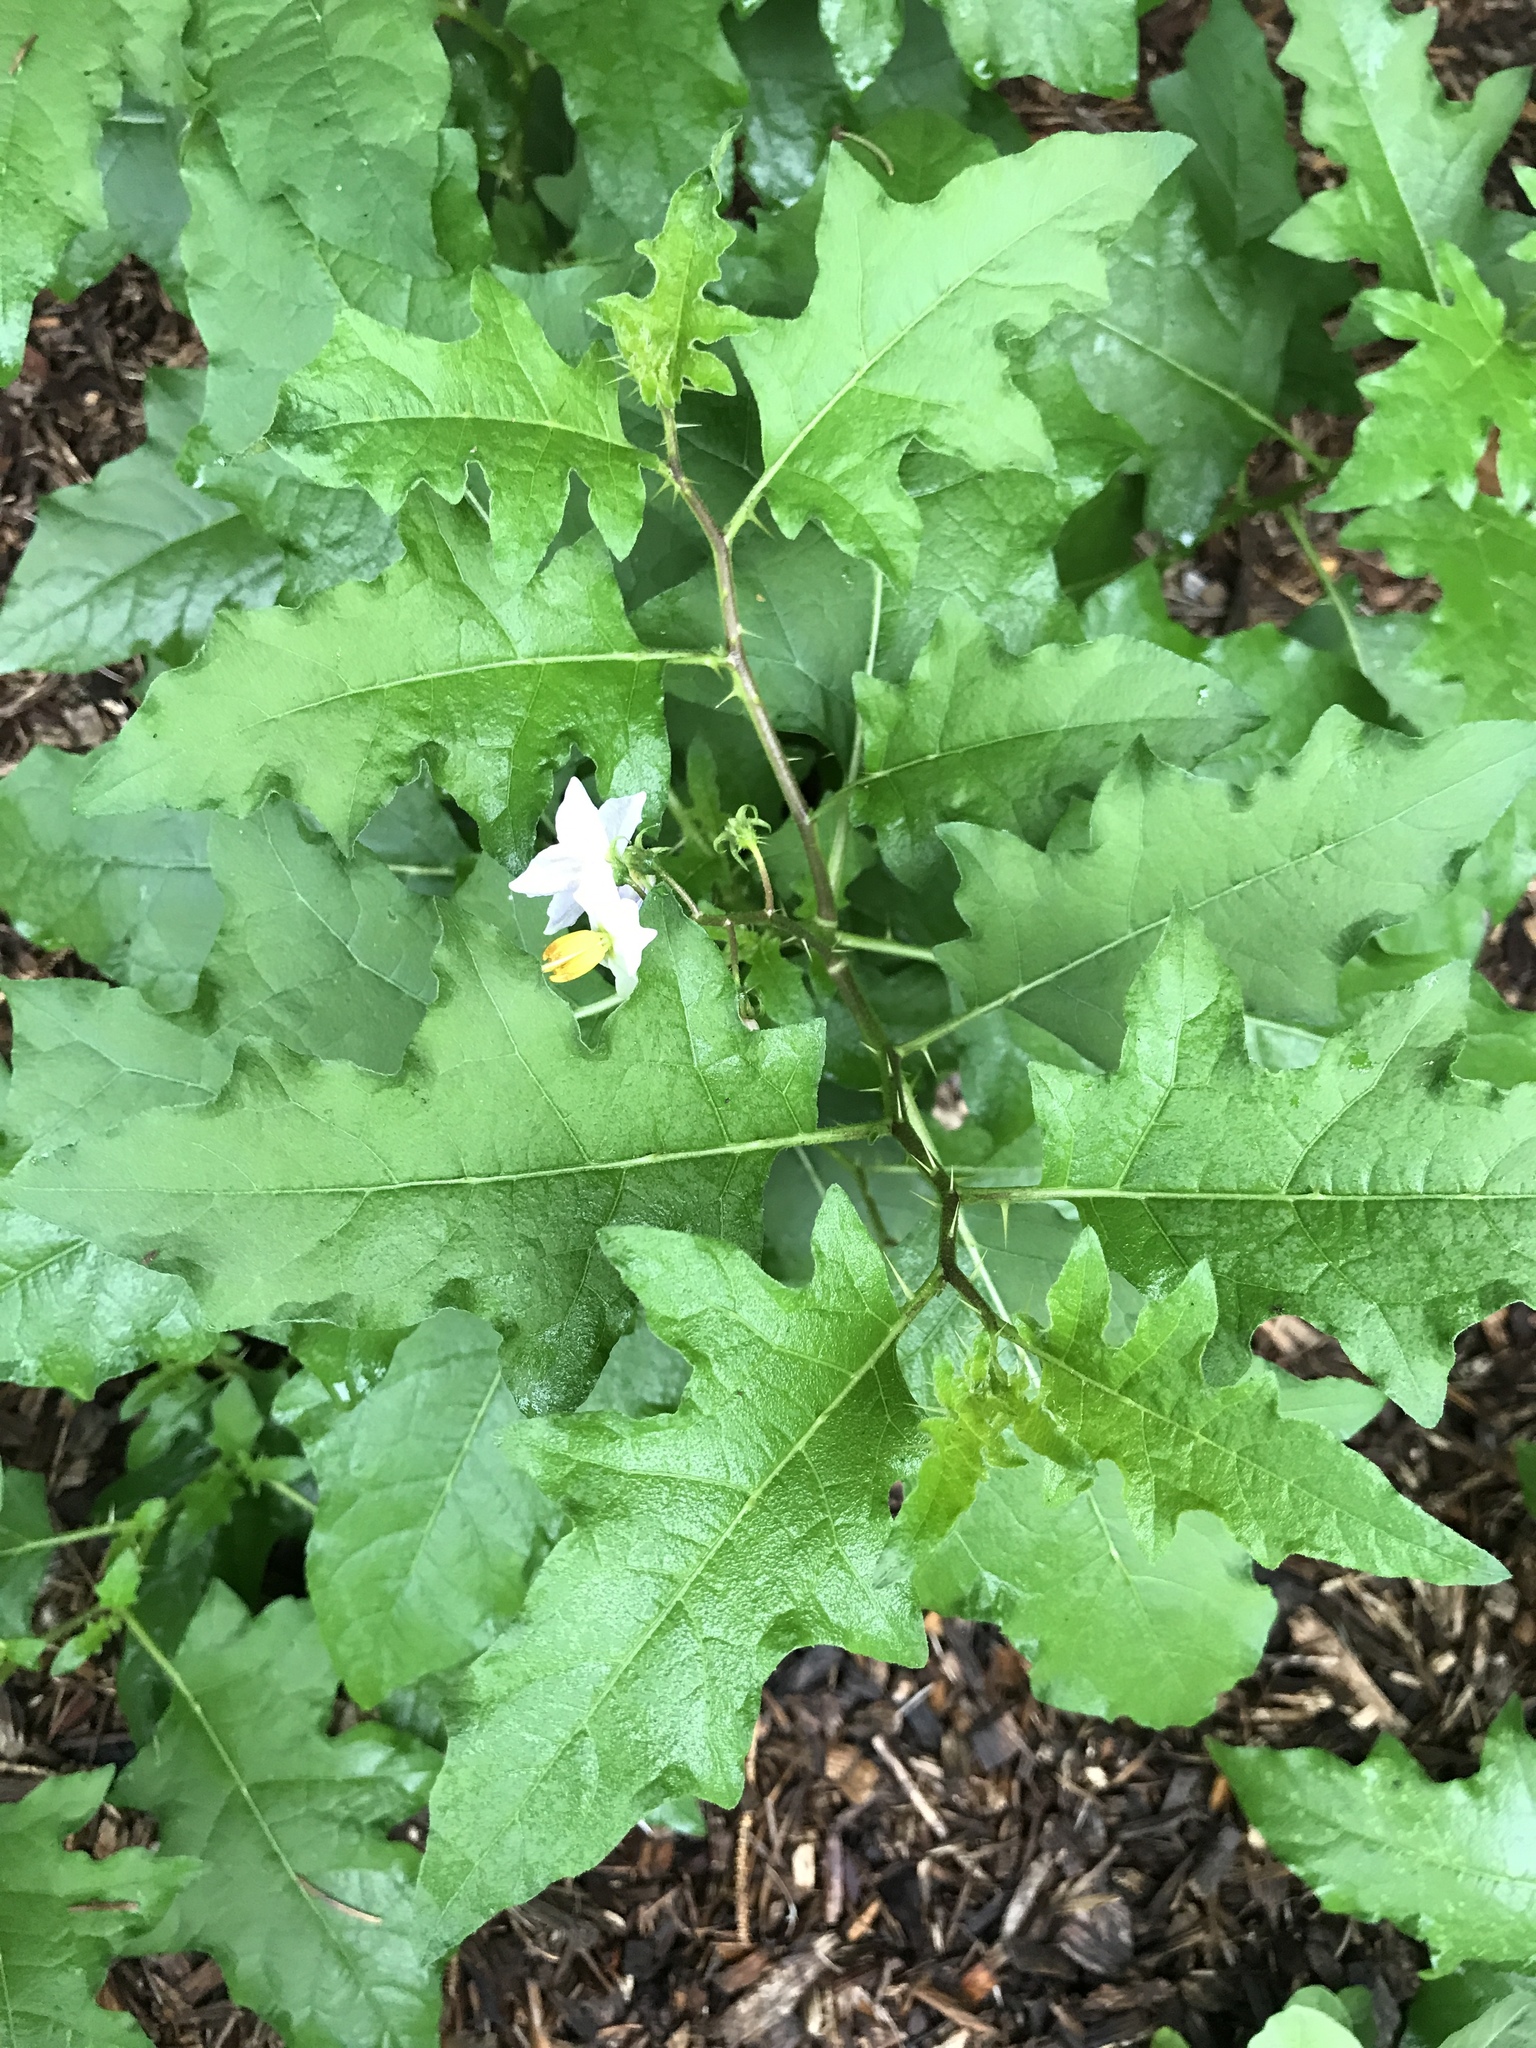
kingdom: Plantae
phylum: Tracheophyta
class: Magnoliopsida
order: Solanales
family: Solanaceae
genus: Solanum
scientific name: Solanum carolinense
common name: Horse-nettle
